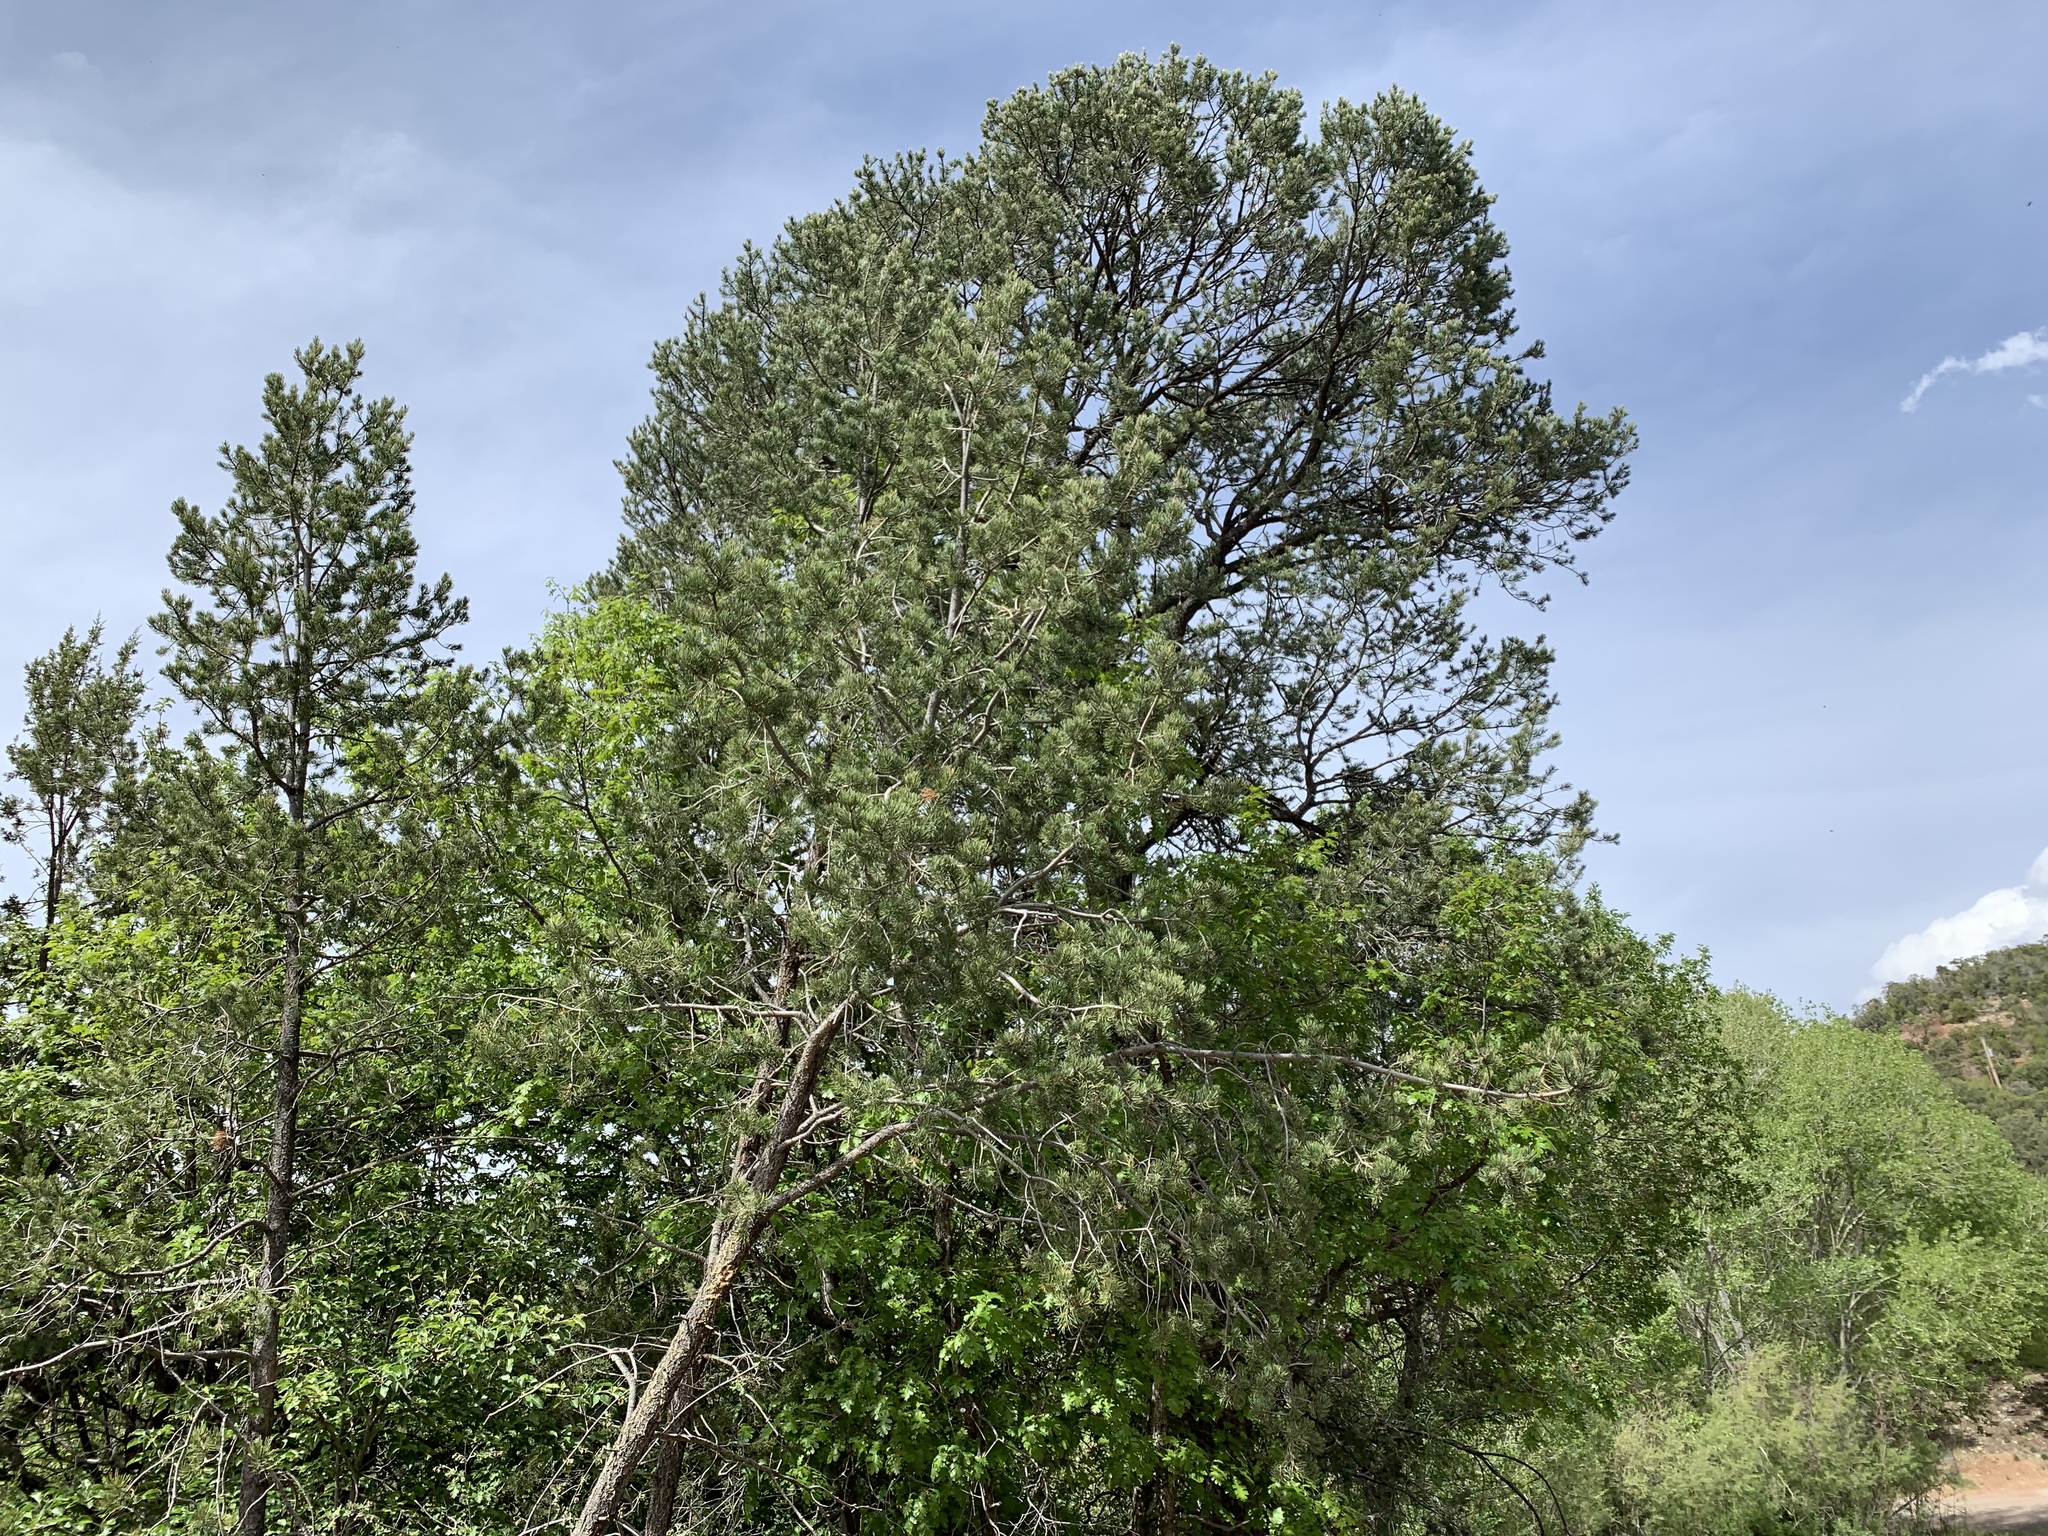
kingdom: Plantae
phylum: Tracheophyta
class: Pinopsida
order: Pinales
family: Pinaceae
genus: Pinus
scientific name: Pinus strobiformis
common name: Southwestern white pine
